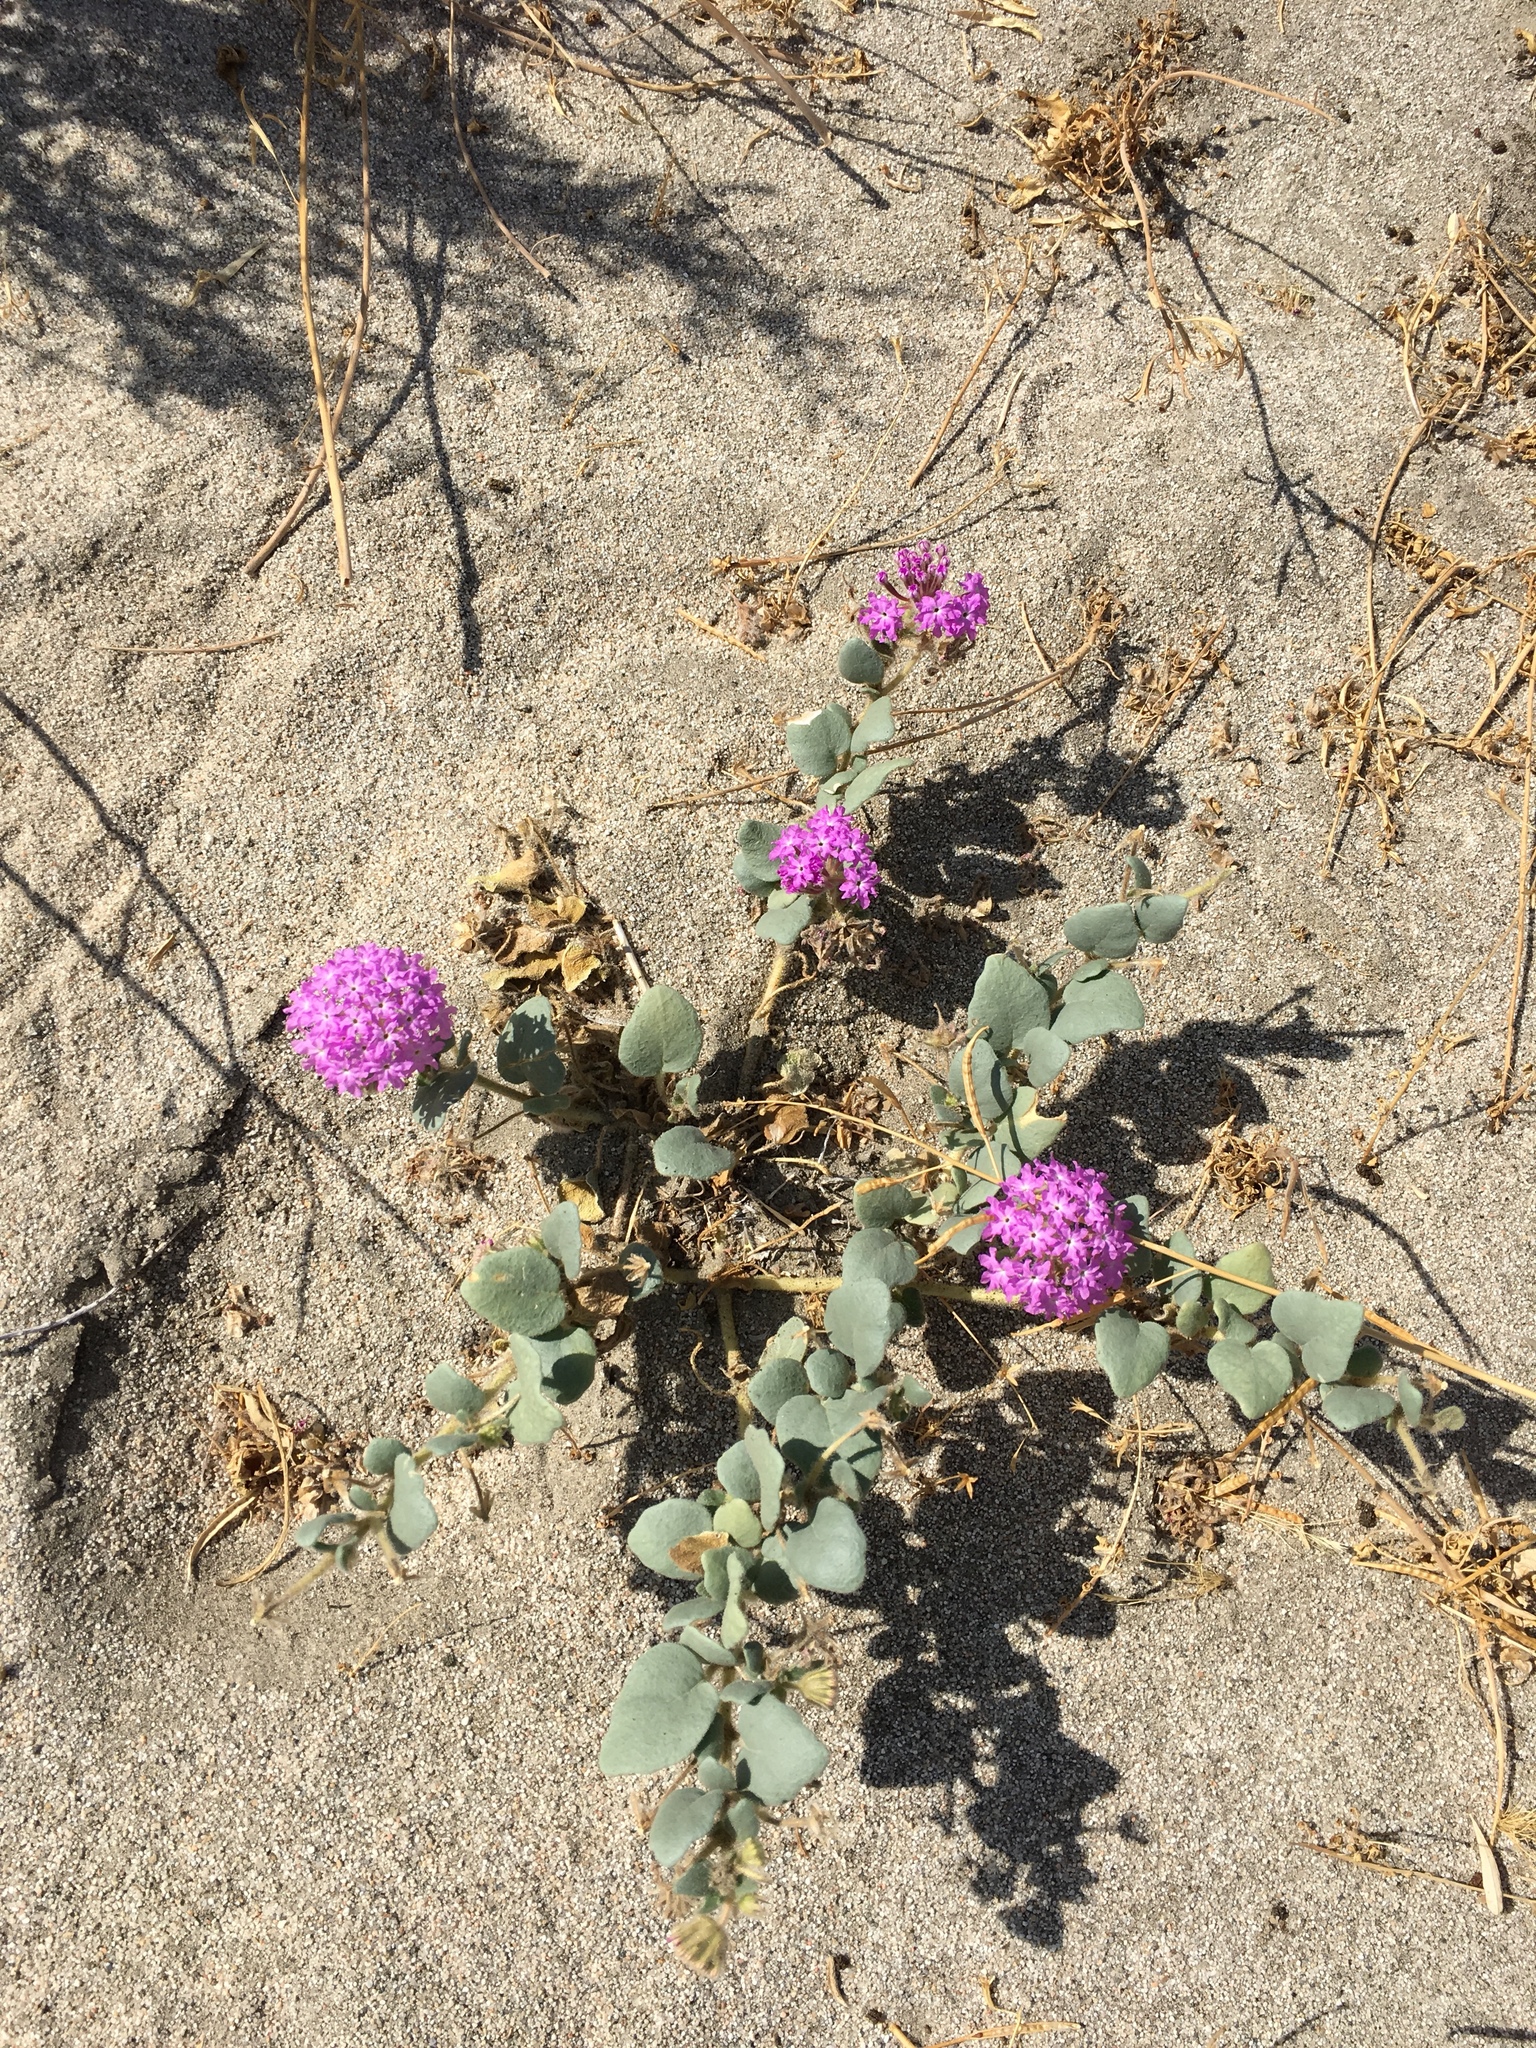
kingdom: Plantae
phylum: Tracheophyta
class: Magnoliopsida
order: Caryophyllales
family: Nyctaginaceae
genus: Abronia
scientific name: Abronia villosa
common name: Desert sand-verbena
